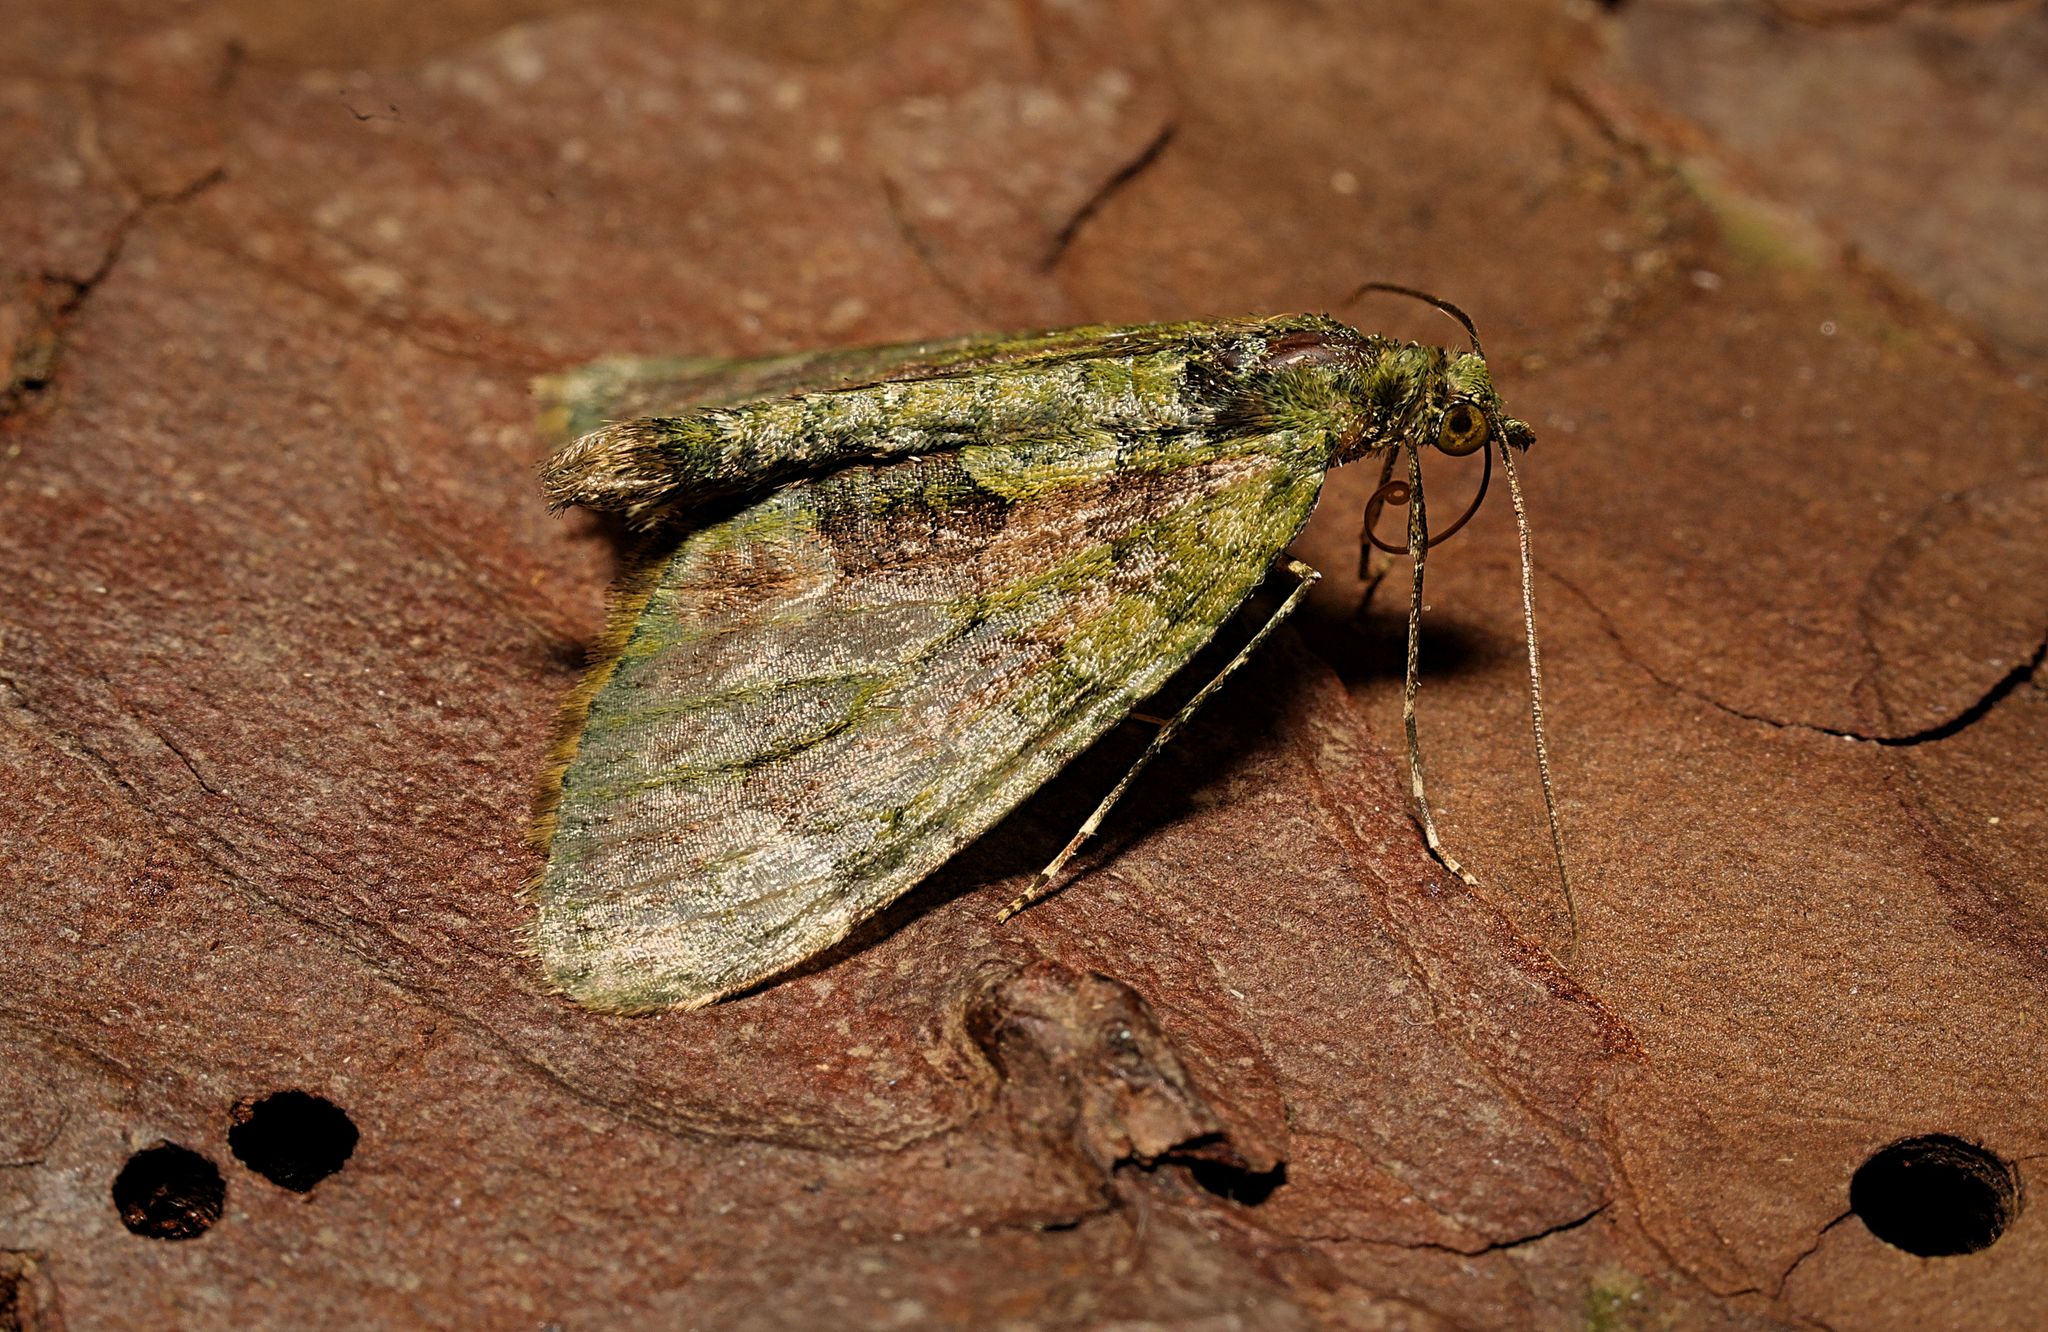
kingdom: Animalia
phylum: Arthropoda
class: Insecta
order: Lepidoptera
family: Geometridae
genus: Chloroclysta
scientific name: Chloroclysta siterata
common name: Red-green carpet
